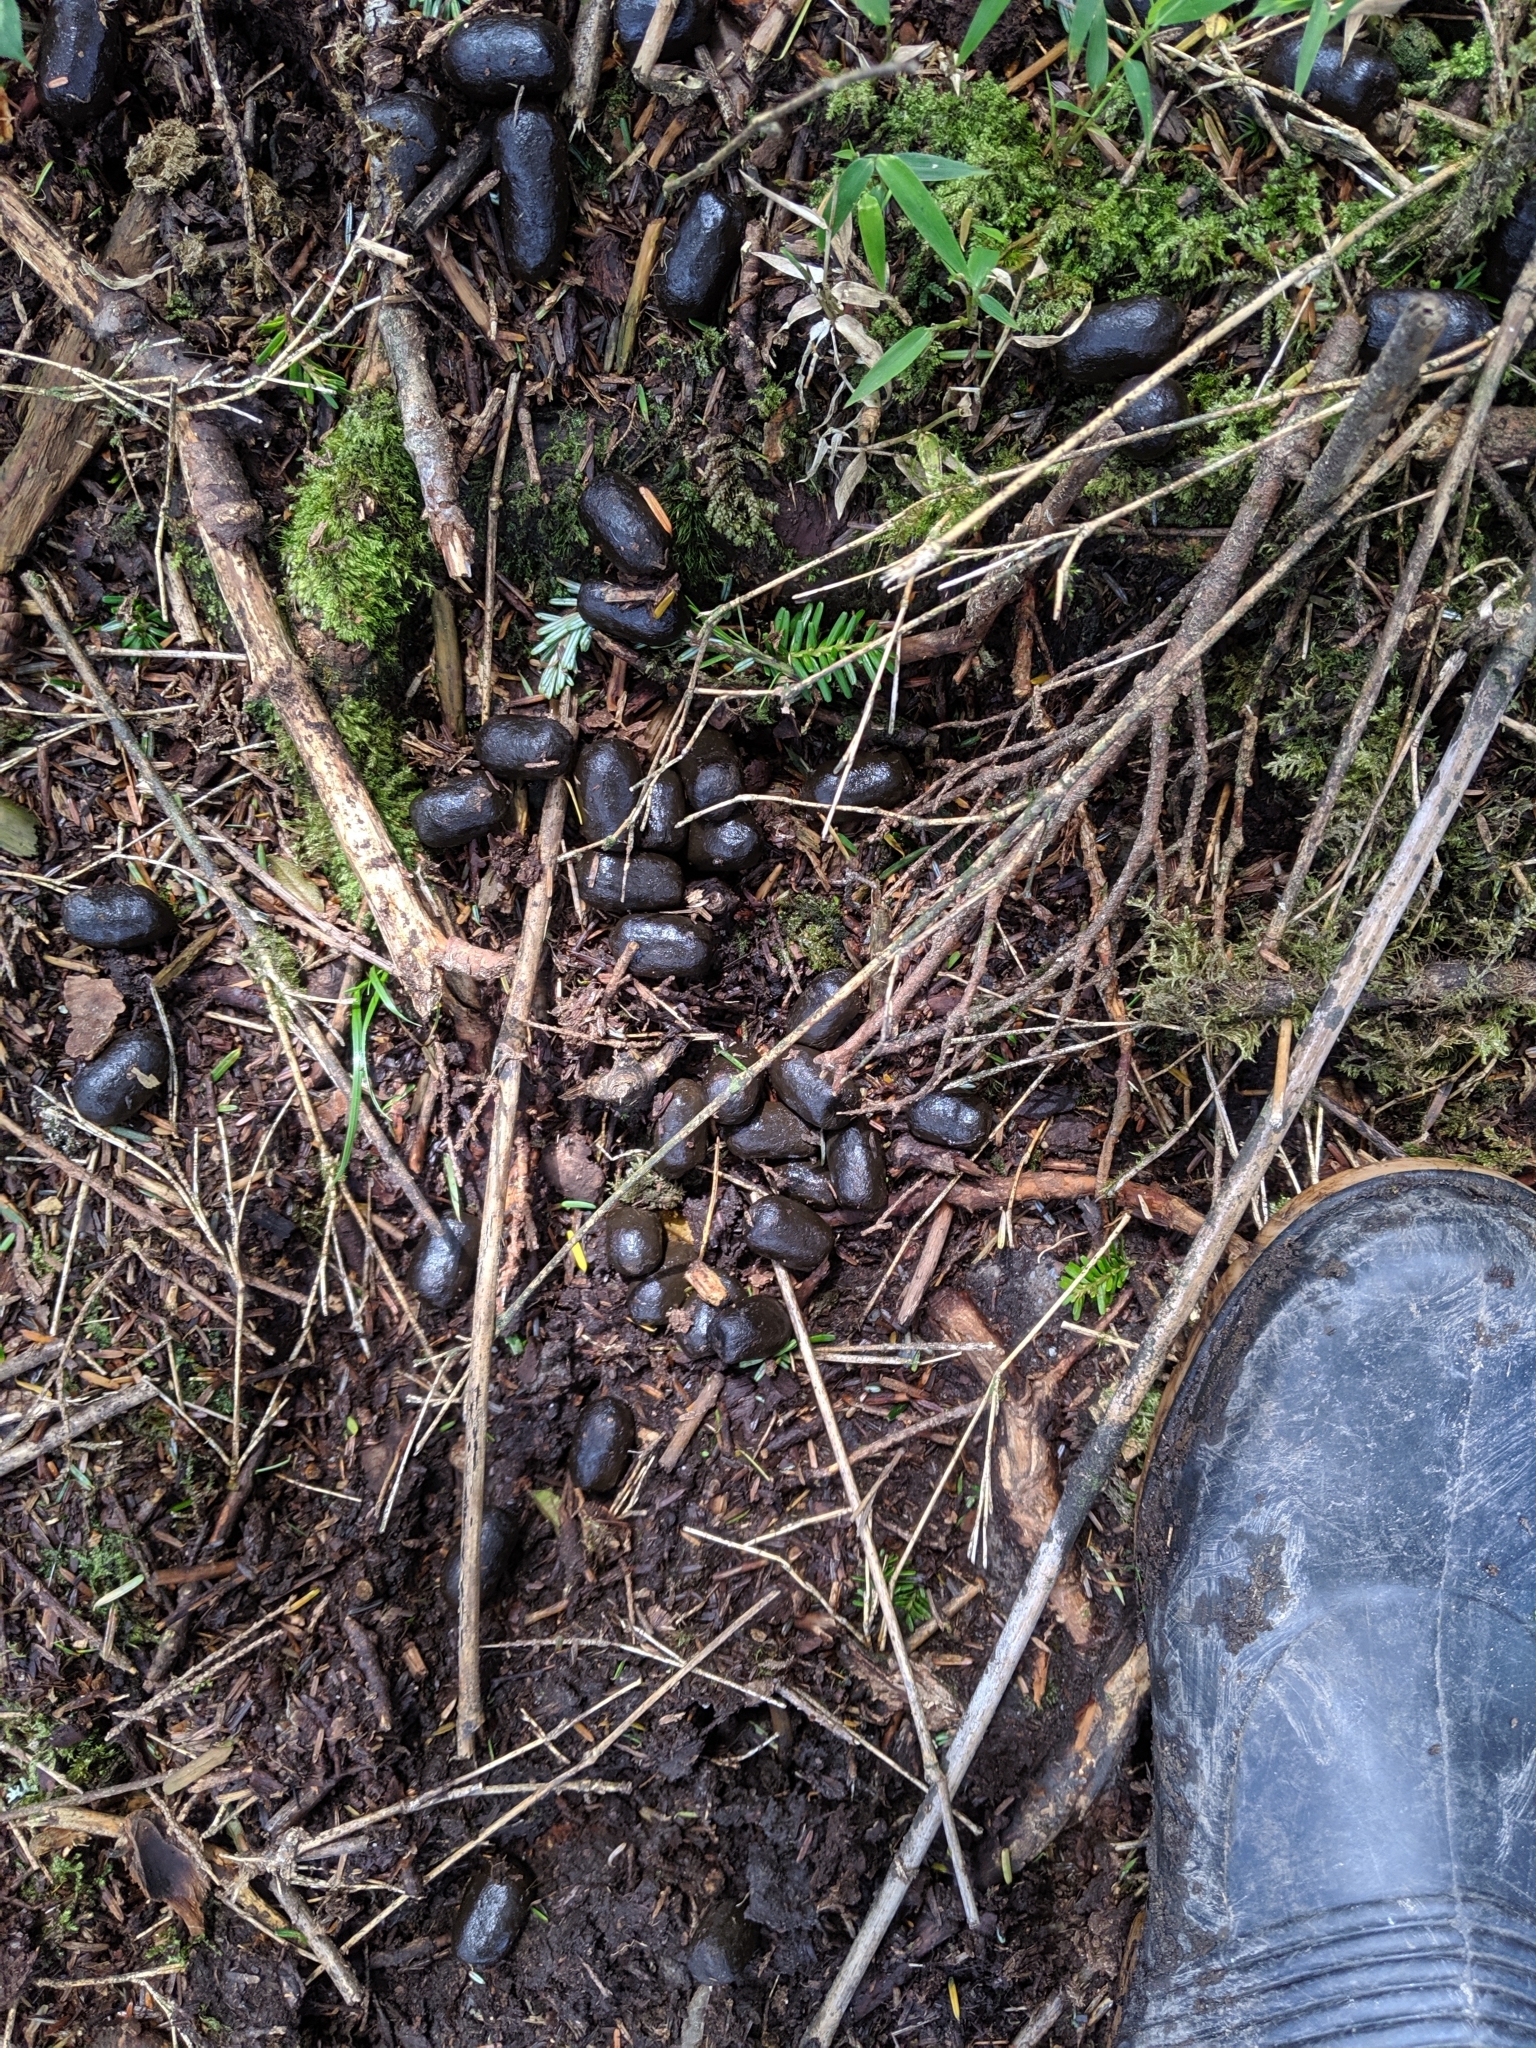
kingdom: Animalia
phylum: Chordata
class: Mammalia
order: Artiodactyla
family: Cervidae
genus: Rusa
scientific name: Rusa unicolor
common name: Sambar
